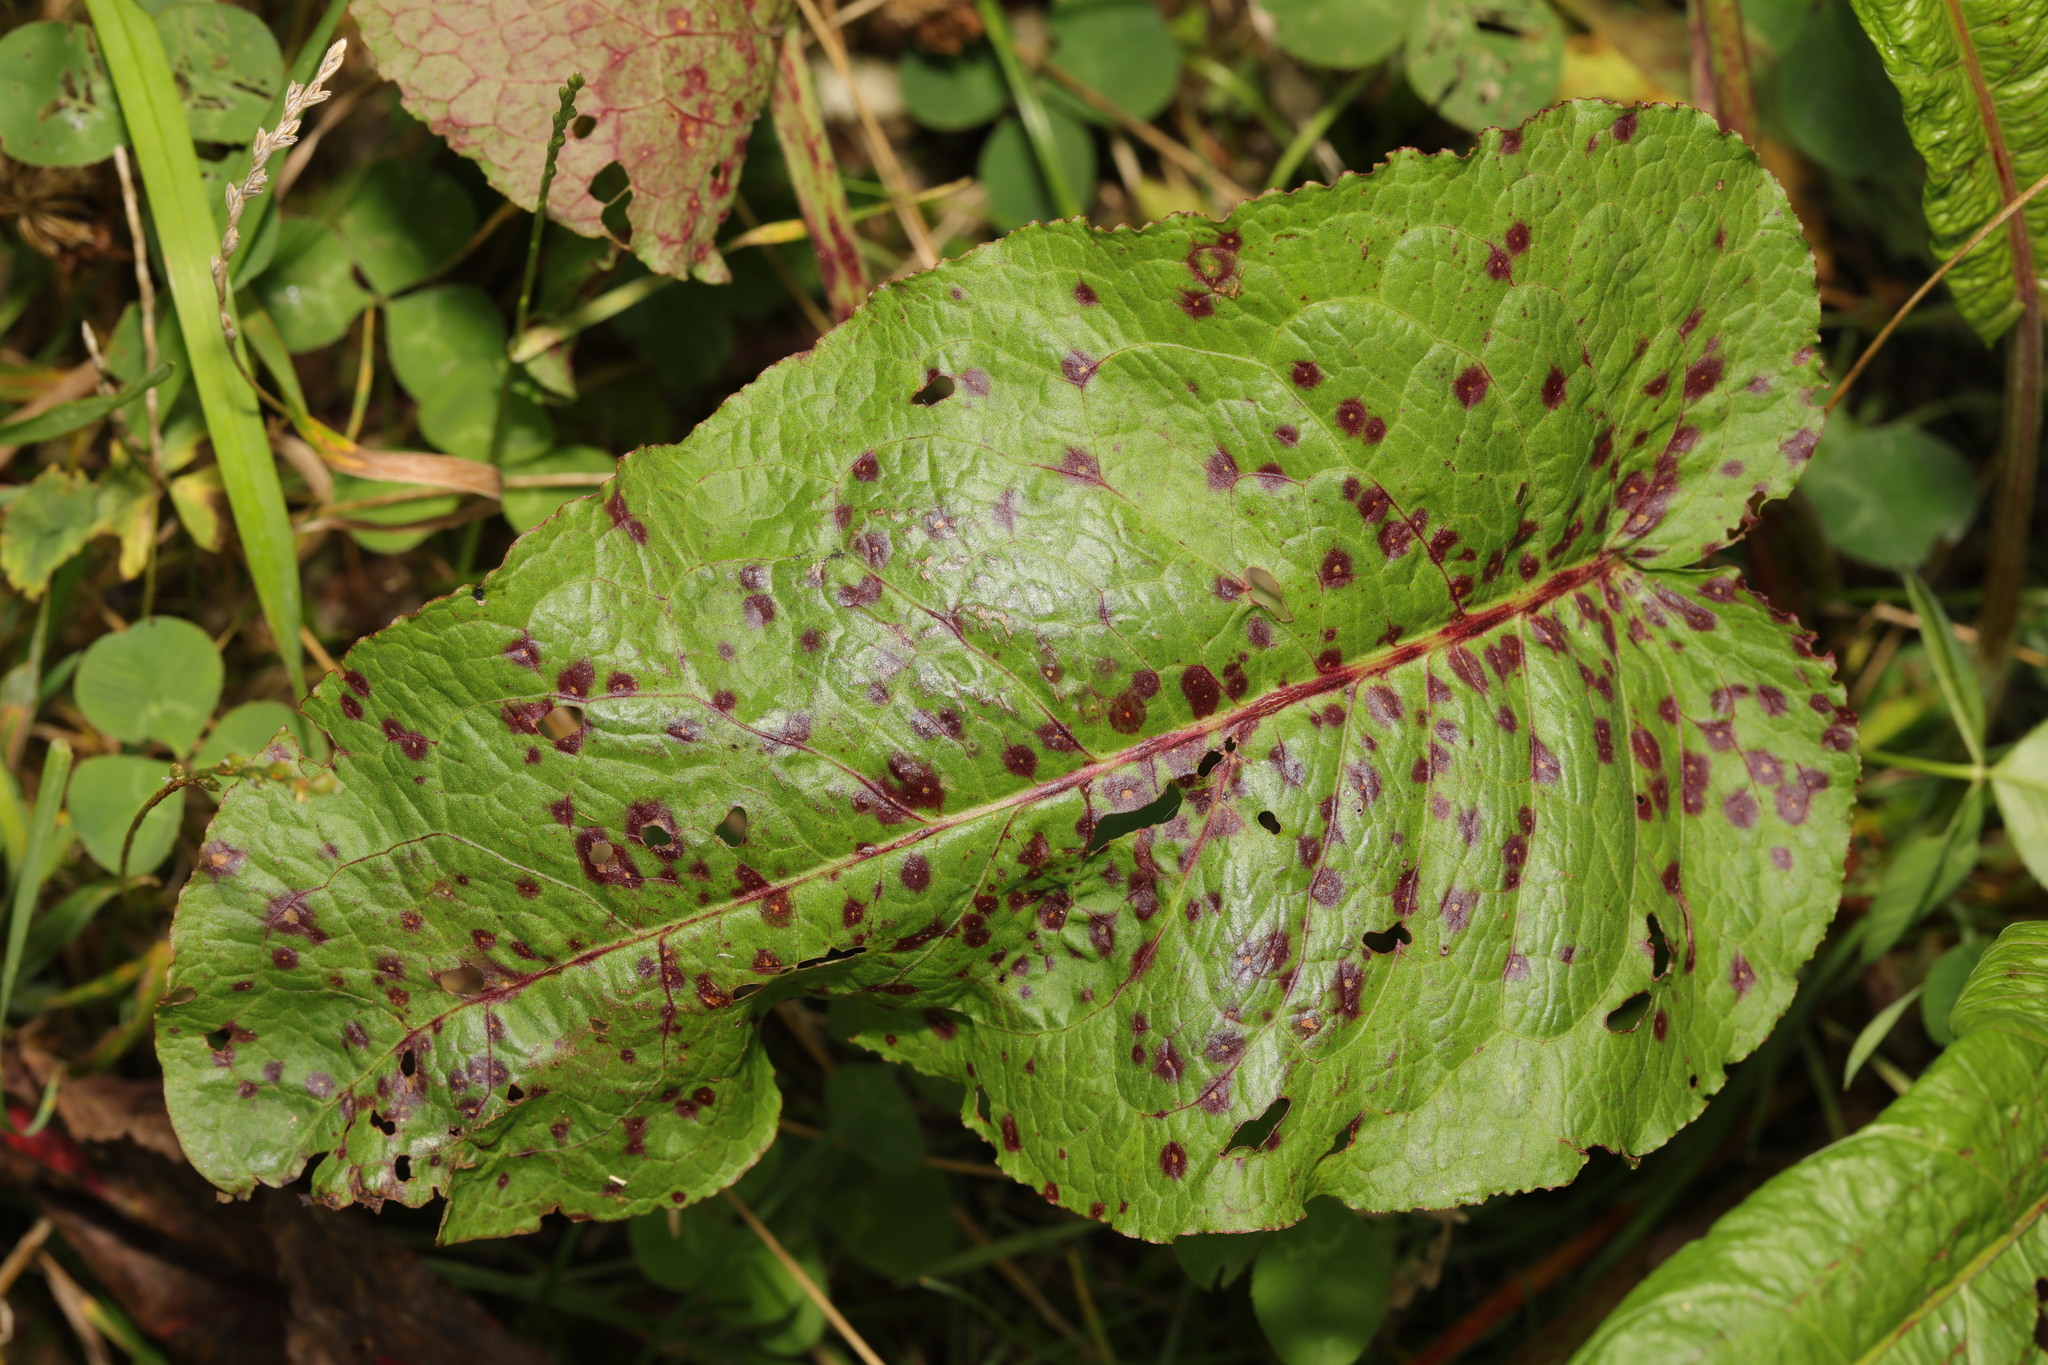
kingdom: Plantae
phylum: Tracheophyta
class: Magnoliopsida
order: Caryophyllales
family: Polygonaceae
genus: Rumex
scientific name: Rumex obtusifolius
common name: Bitter dock
